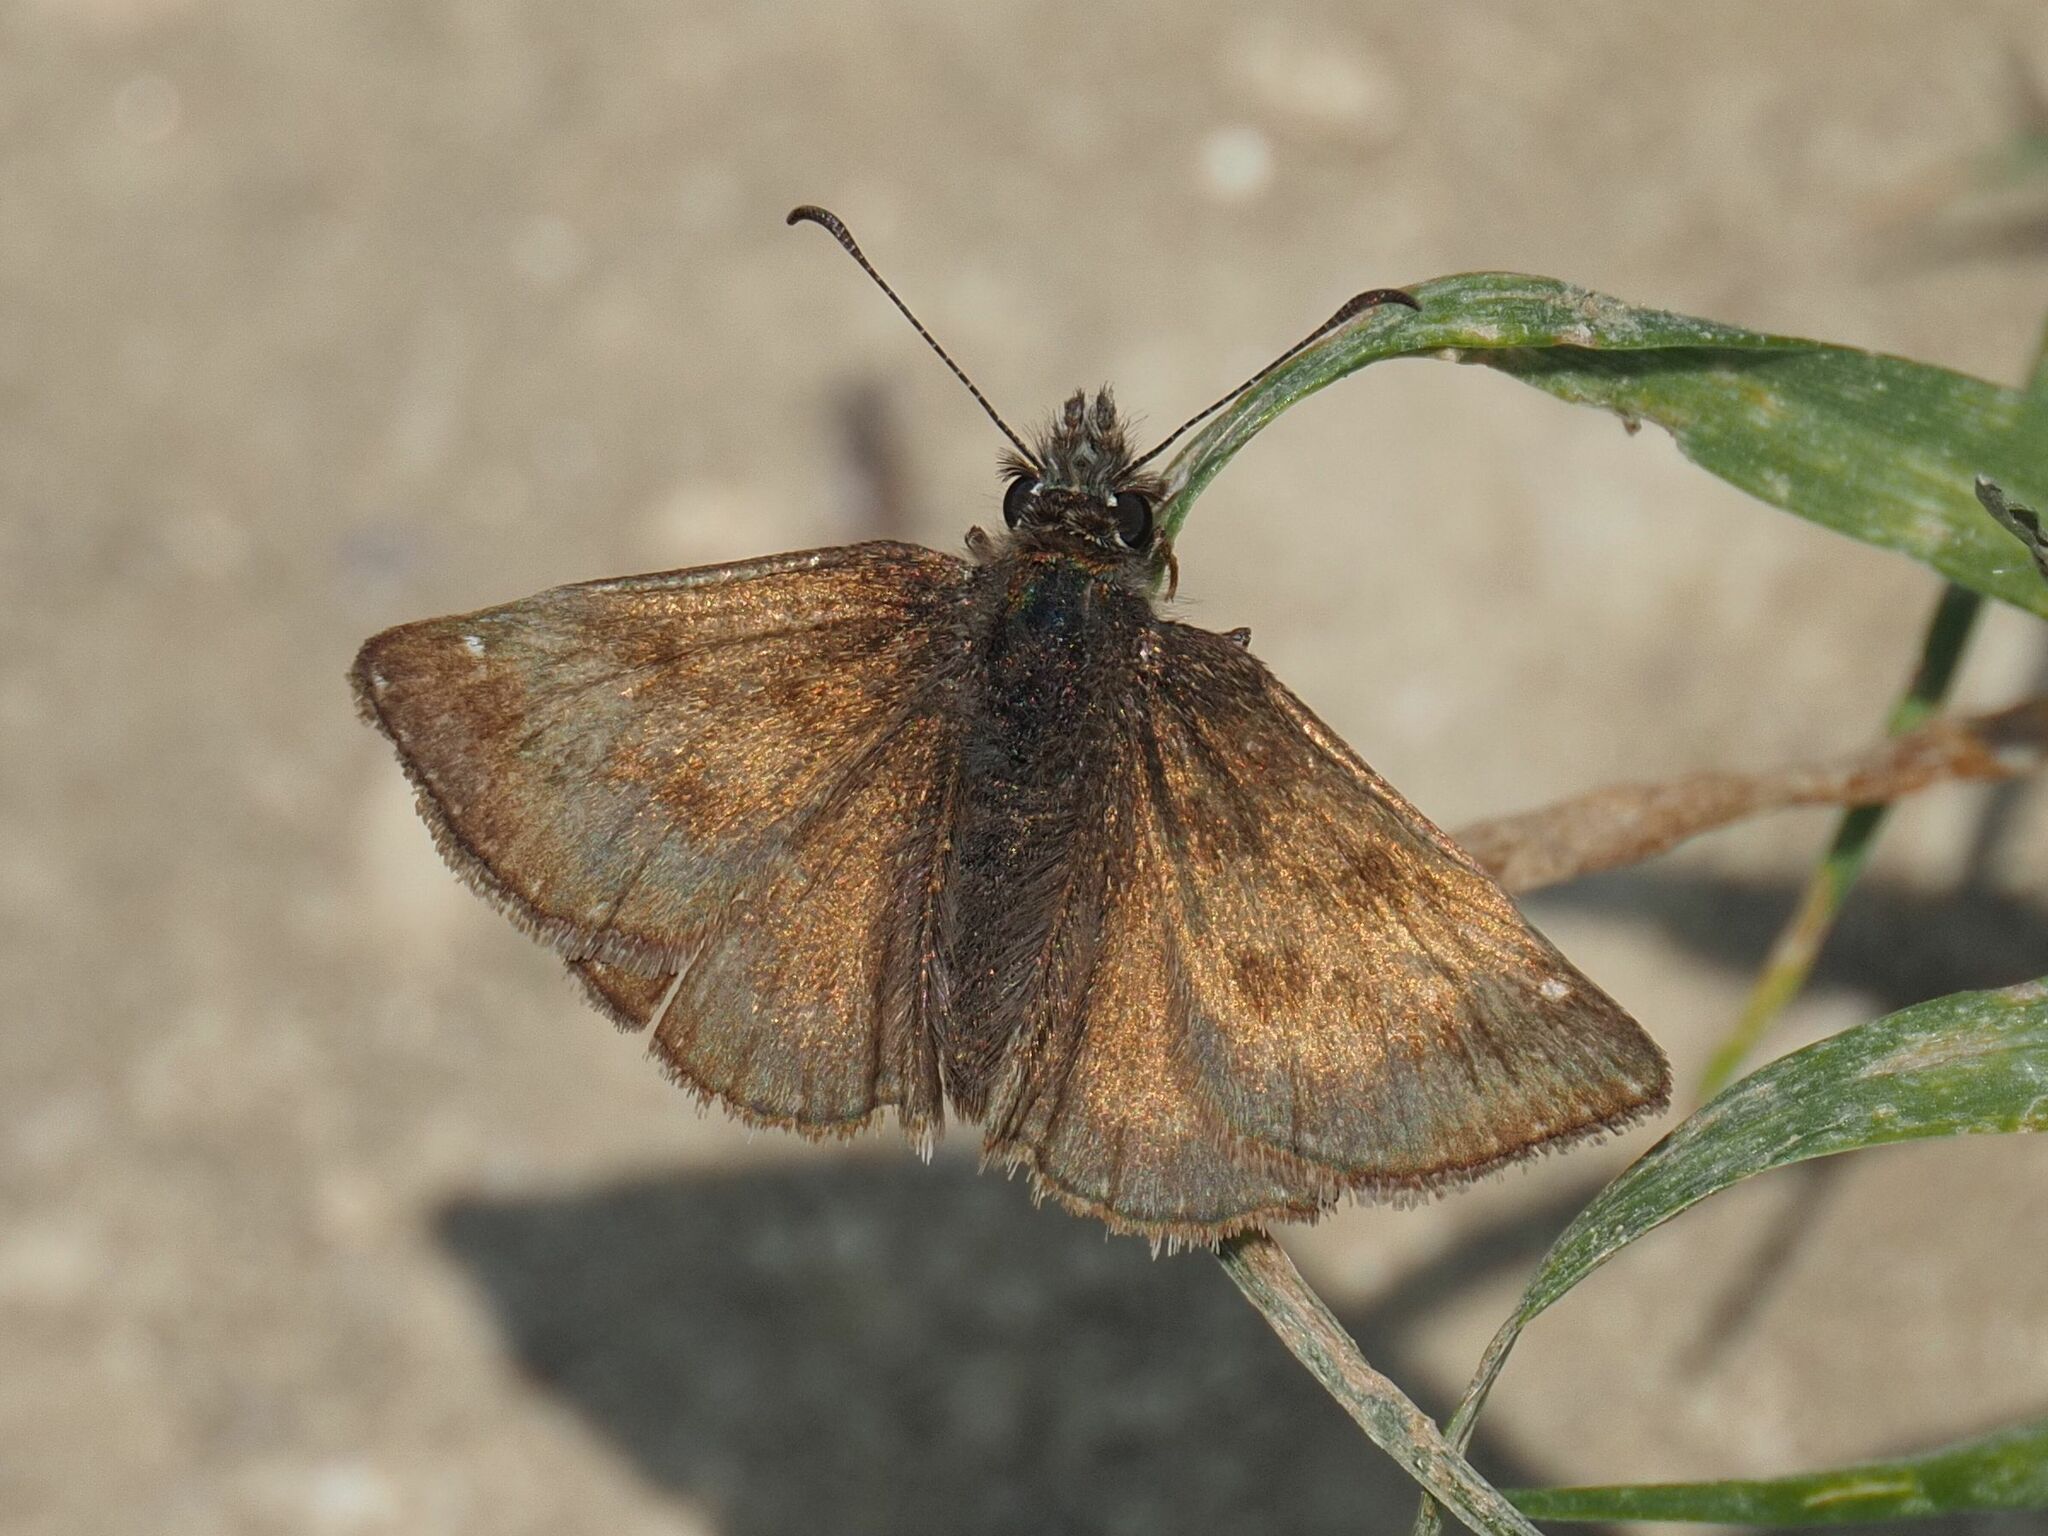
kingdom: Animalia
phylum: Arthropoda
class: Insecta
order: Lepidoptera
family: Hesperiidae
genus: Erynnis
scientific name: Erynnis tages
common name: Dingy skipper
